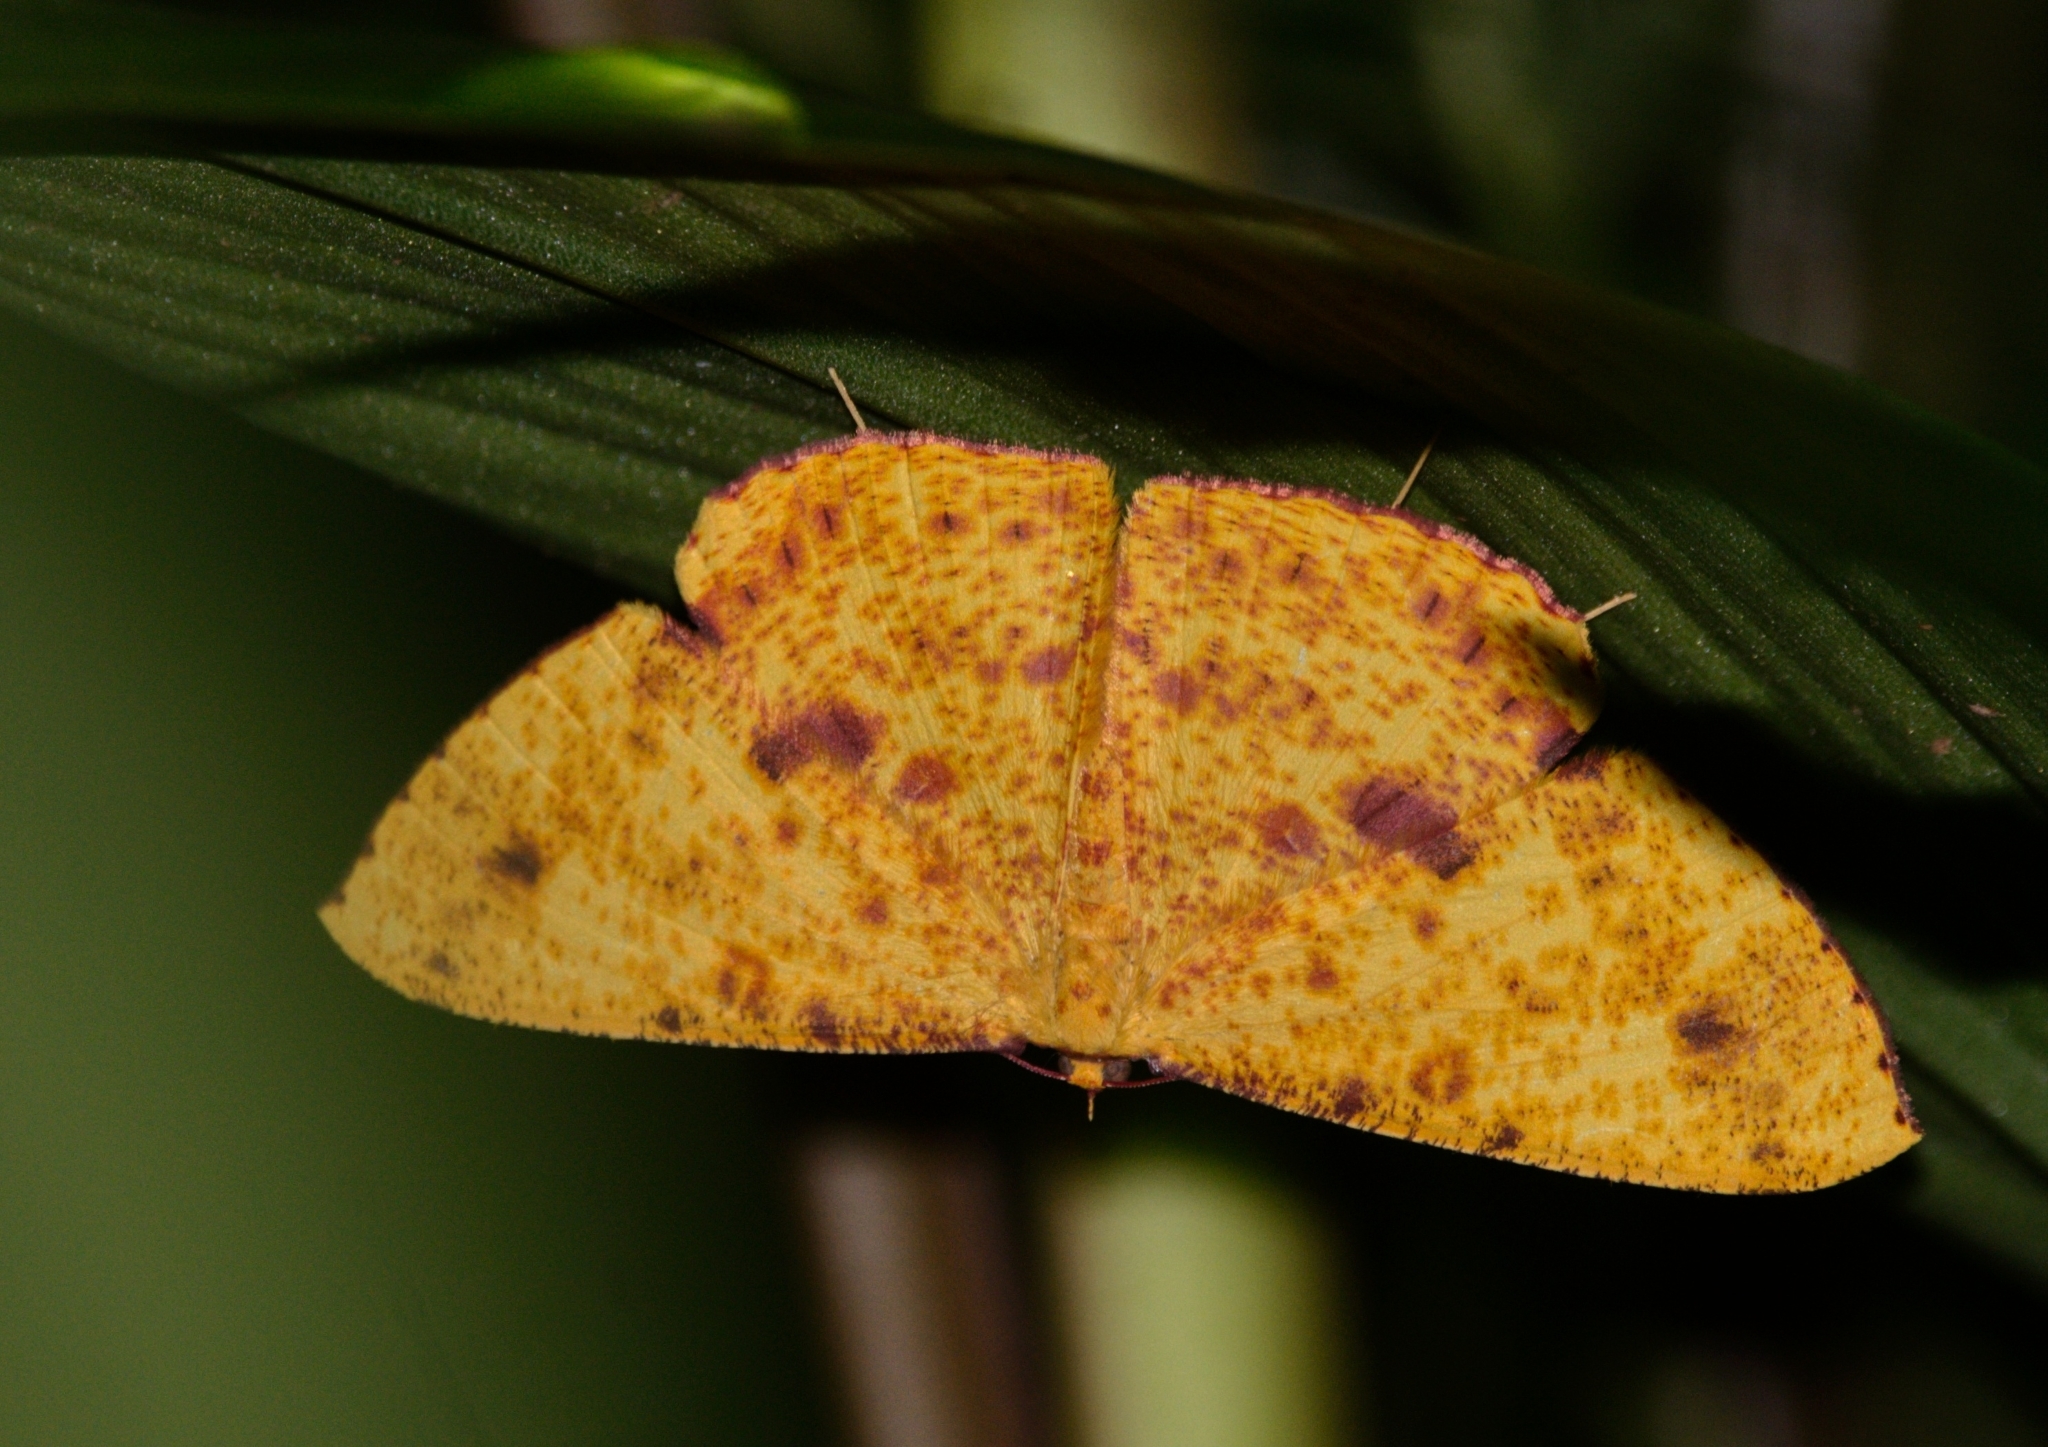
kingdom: Animalia
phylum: Arthropoda
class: Insecta
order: Lepidoptera
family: Geometridae
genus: Eumelea
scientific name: Eumelea ludovicata
